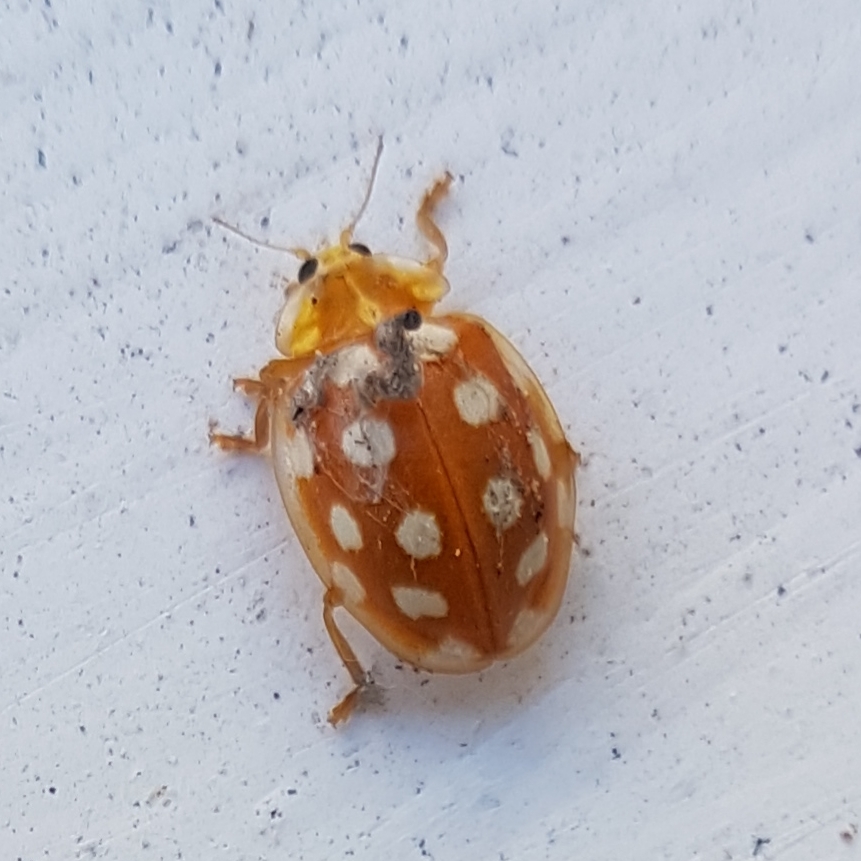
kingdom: Animalia
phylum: Arthropoda
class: Insecta
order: Coleoptera
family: Coccinellidae
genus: Halyzia
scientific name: Halyzia sedecimguttata
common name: Orange ladybird
